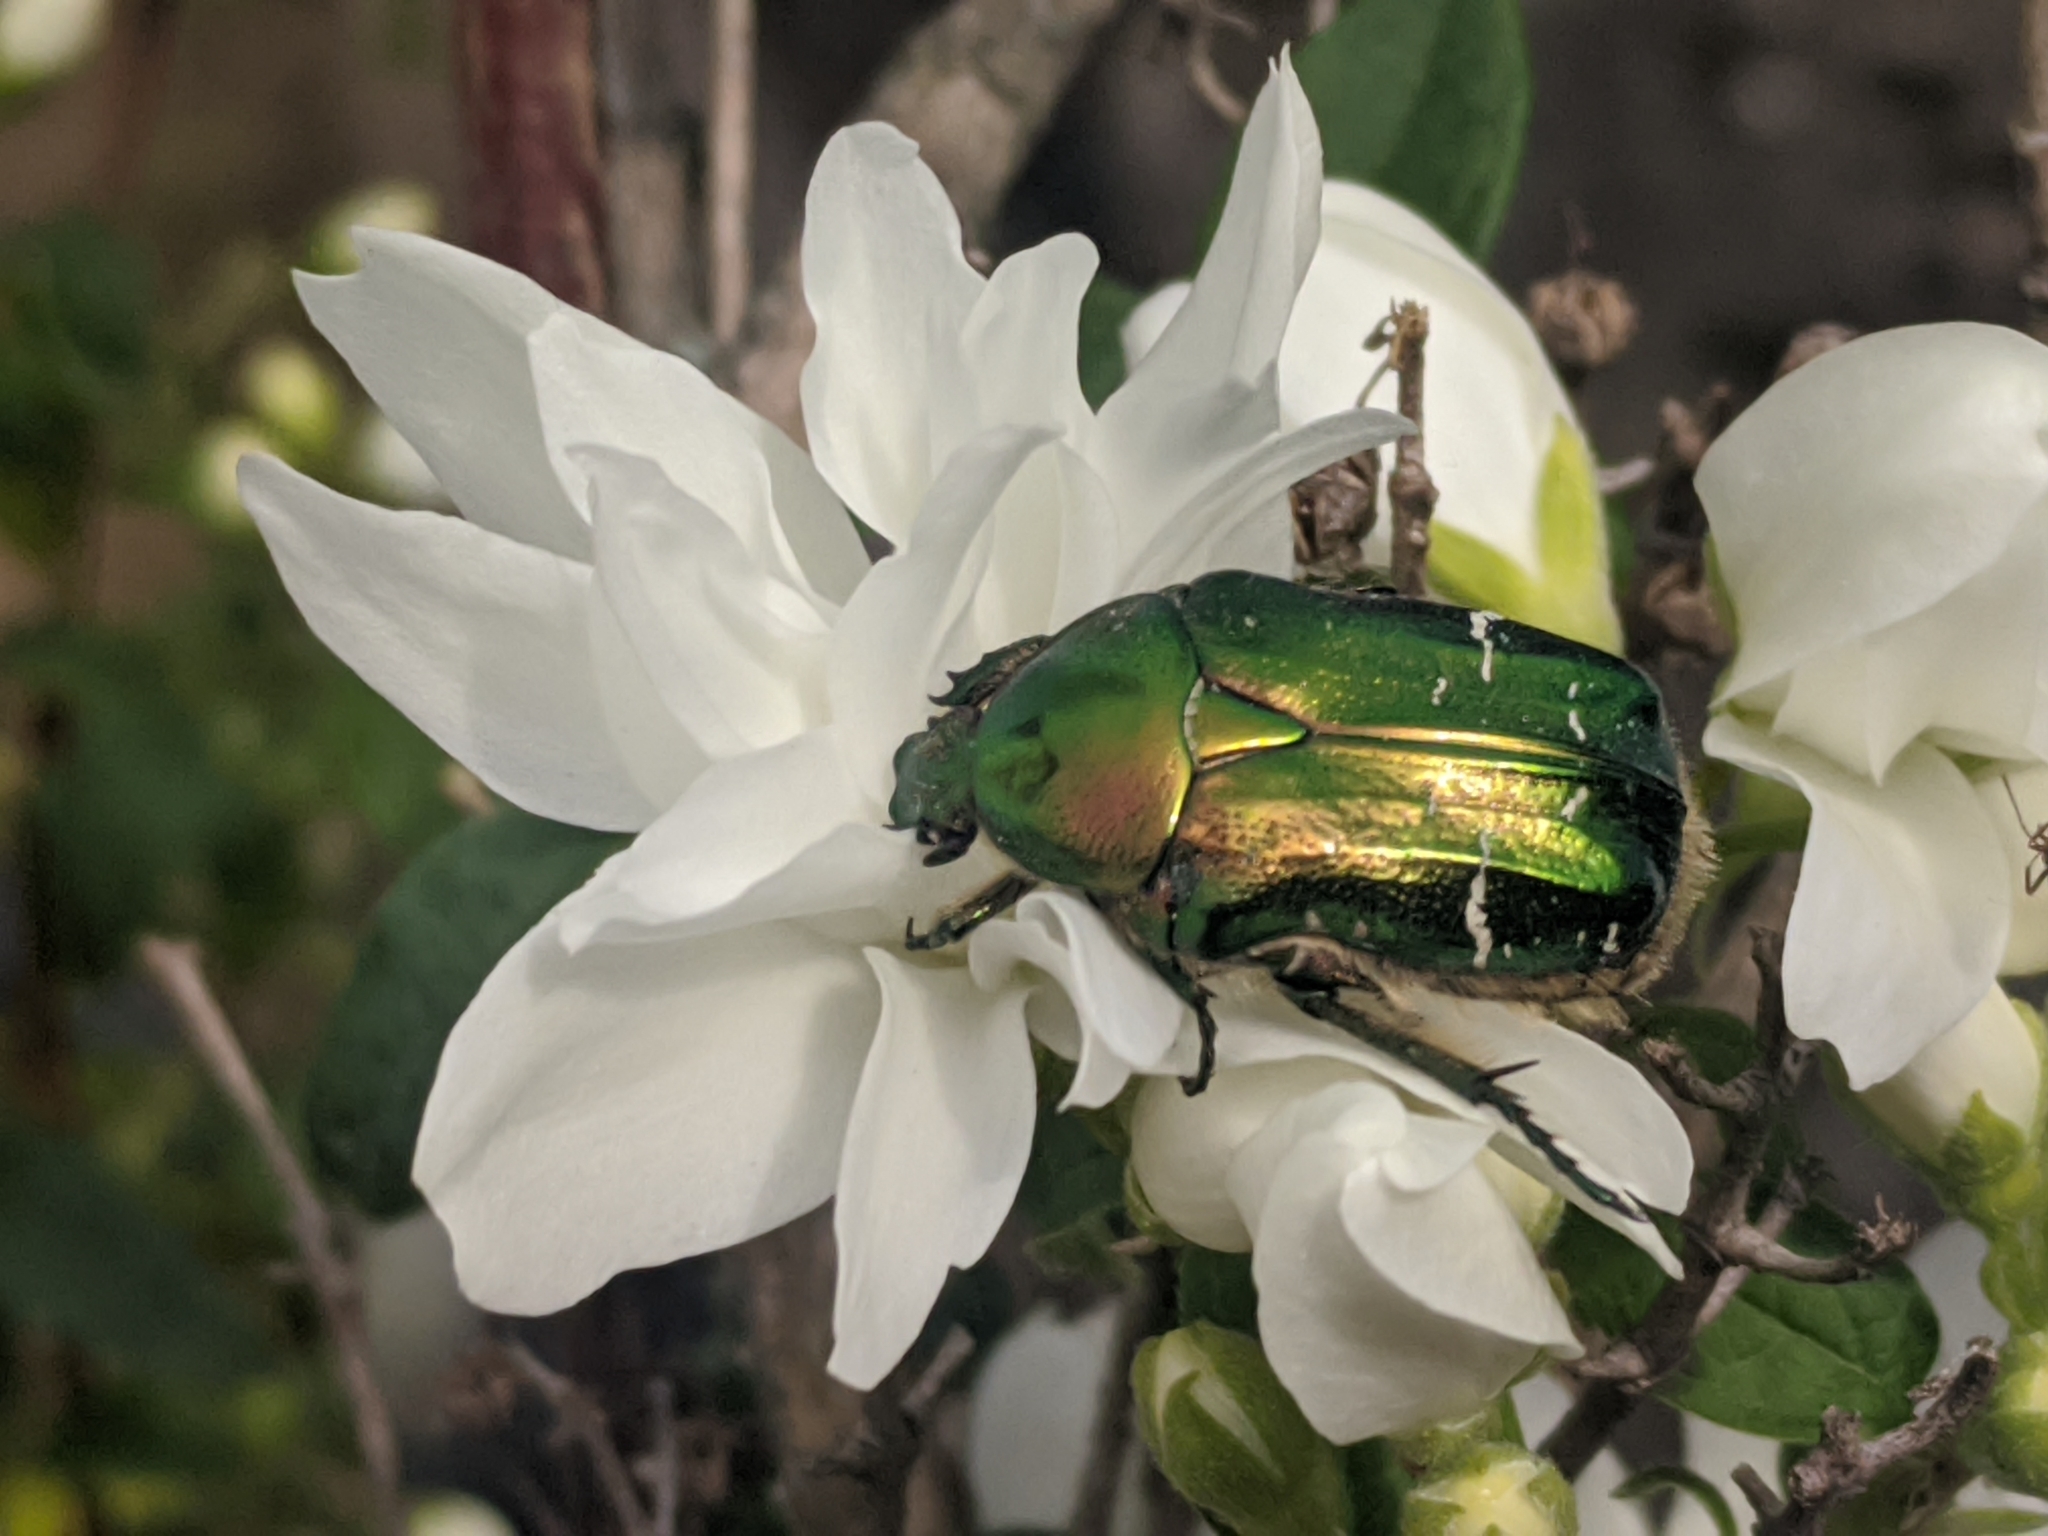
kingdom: Animalia
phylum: Arthropoda
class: Insecta
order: Coleoptera
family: Scarabaeidae
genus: Cetonia
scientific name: Cetonia aurata
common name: Rose chafer
